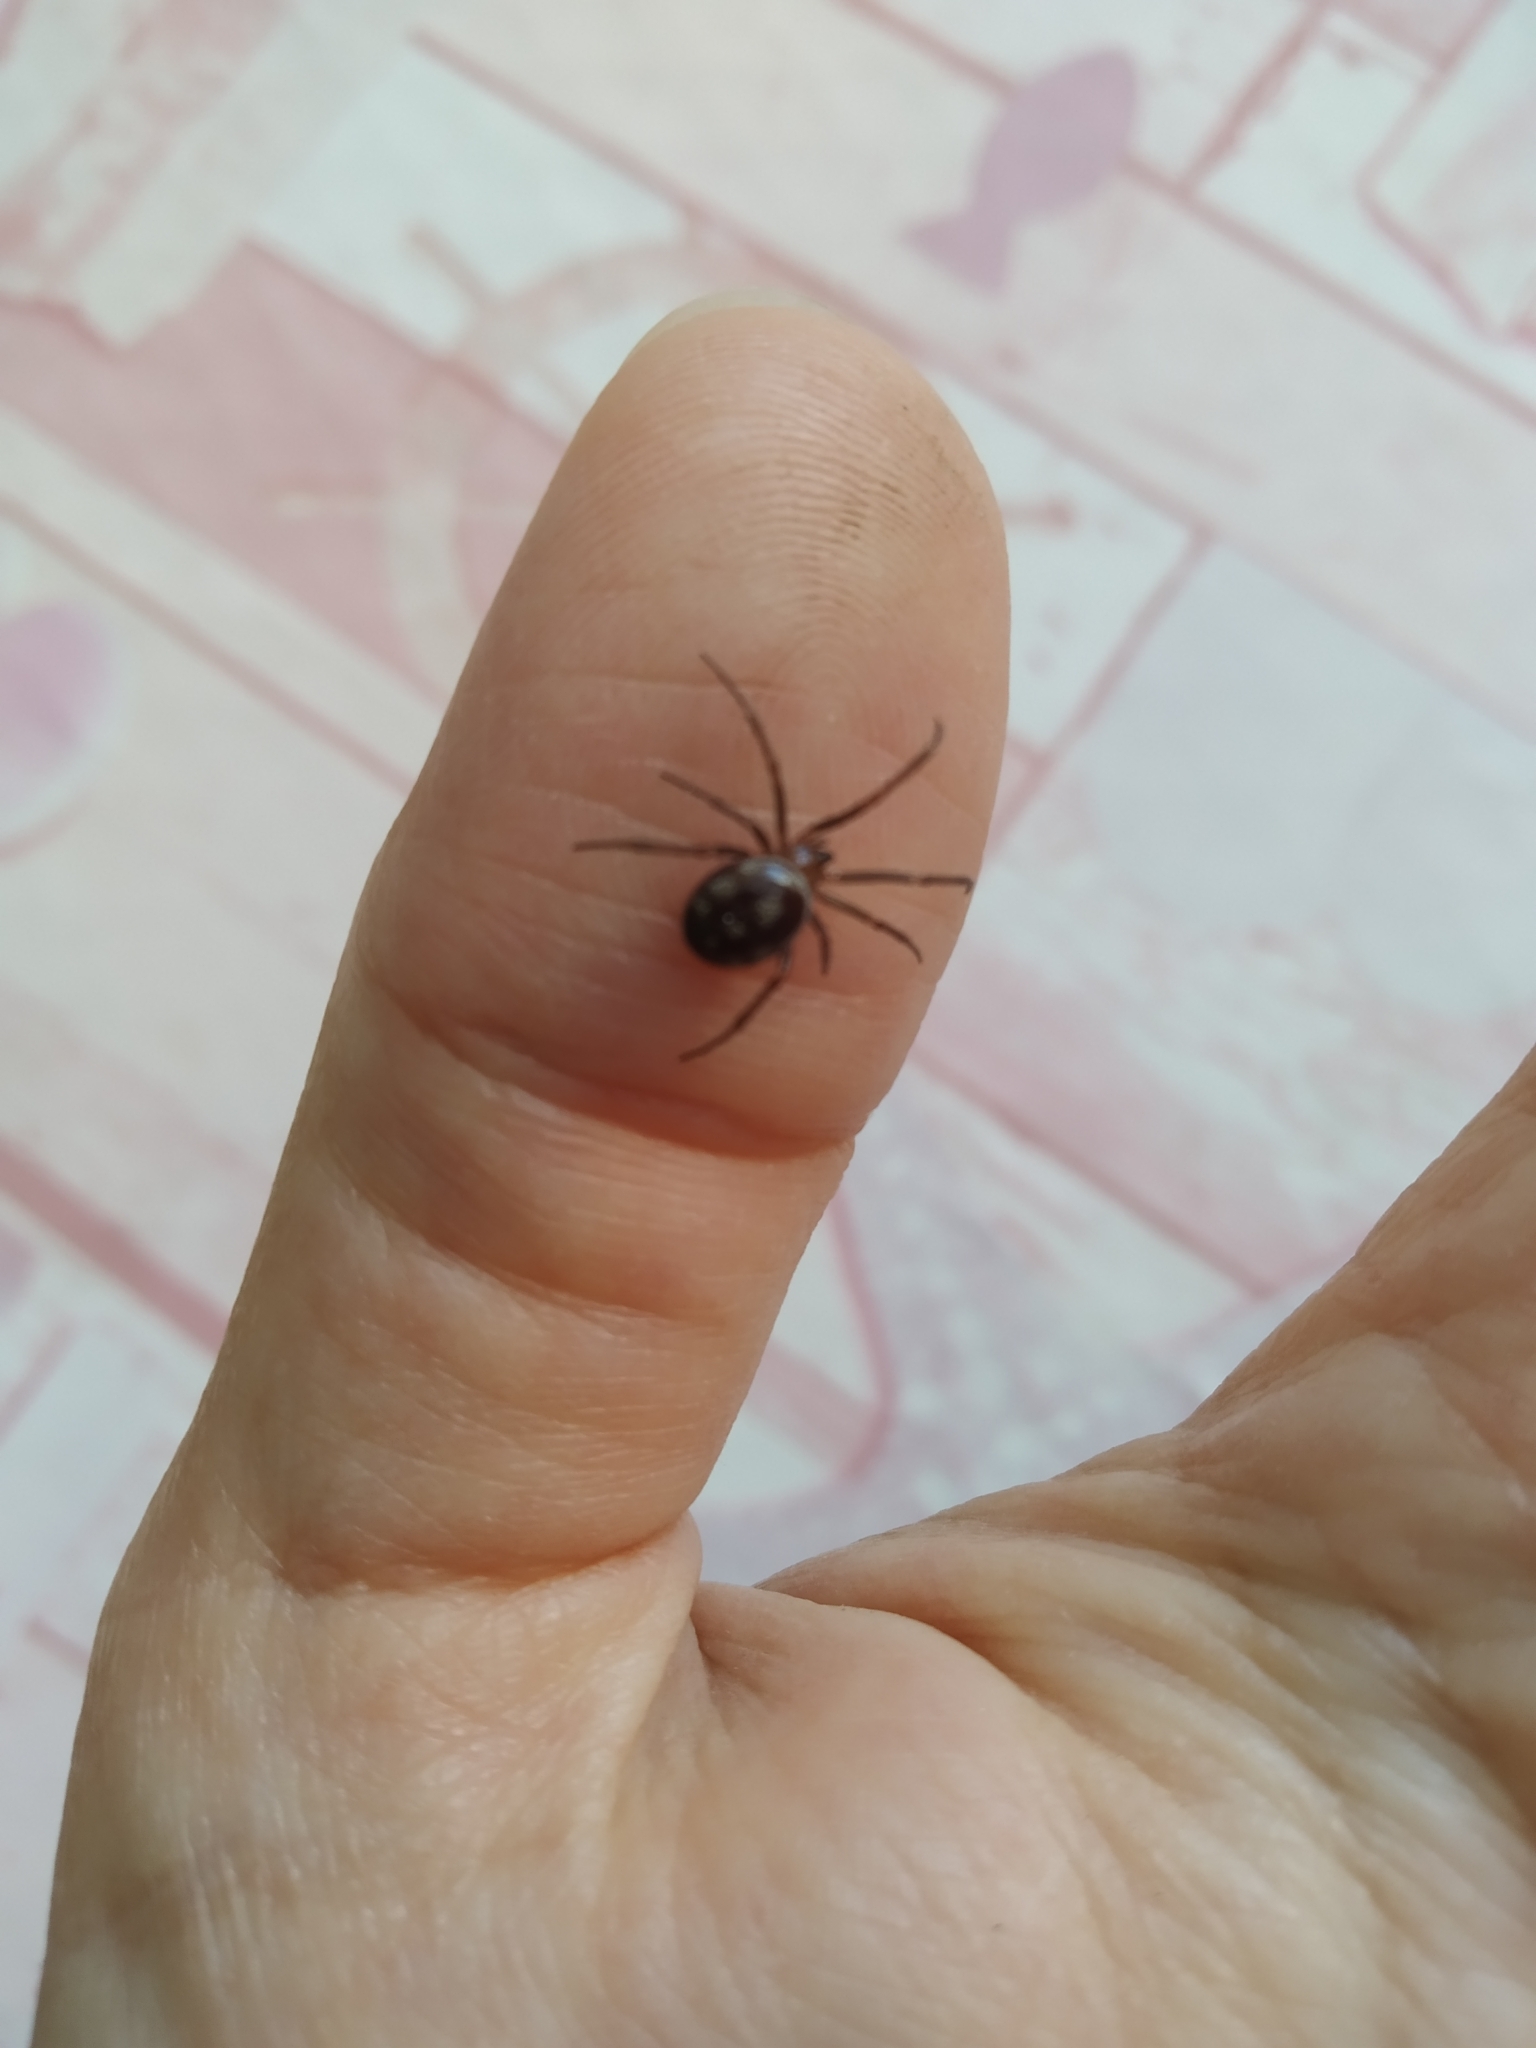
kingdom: Animalia
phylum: Arthropoda
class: Arachnida
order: Araneae
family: Theridiidae
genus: Steatoda
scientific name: Steatoda grossa
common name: False black widow
